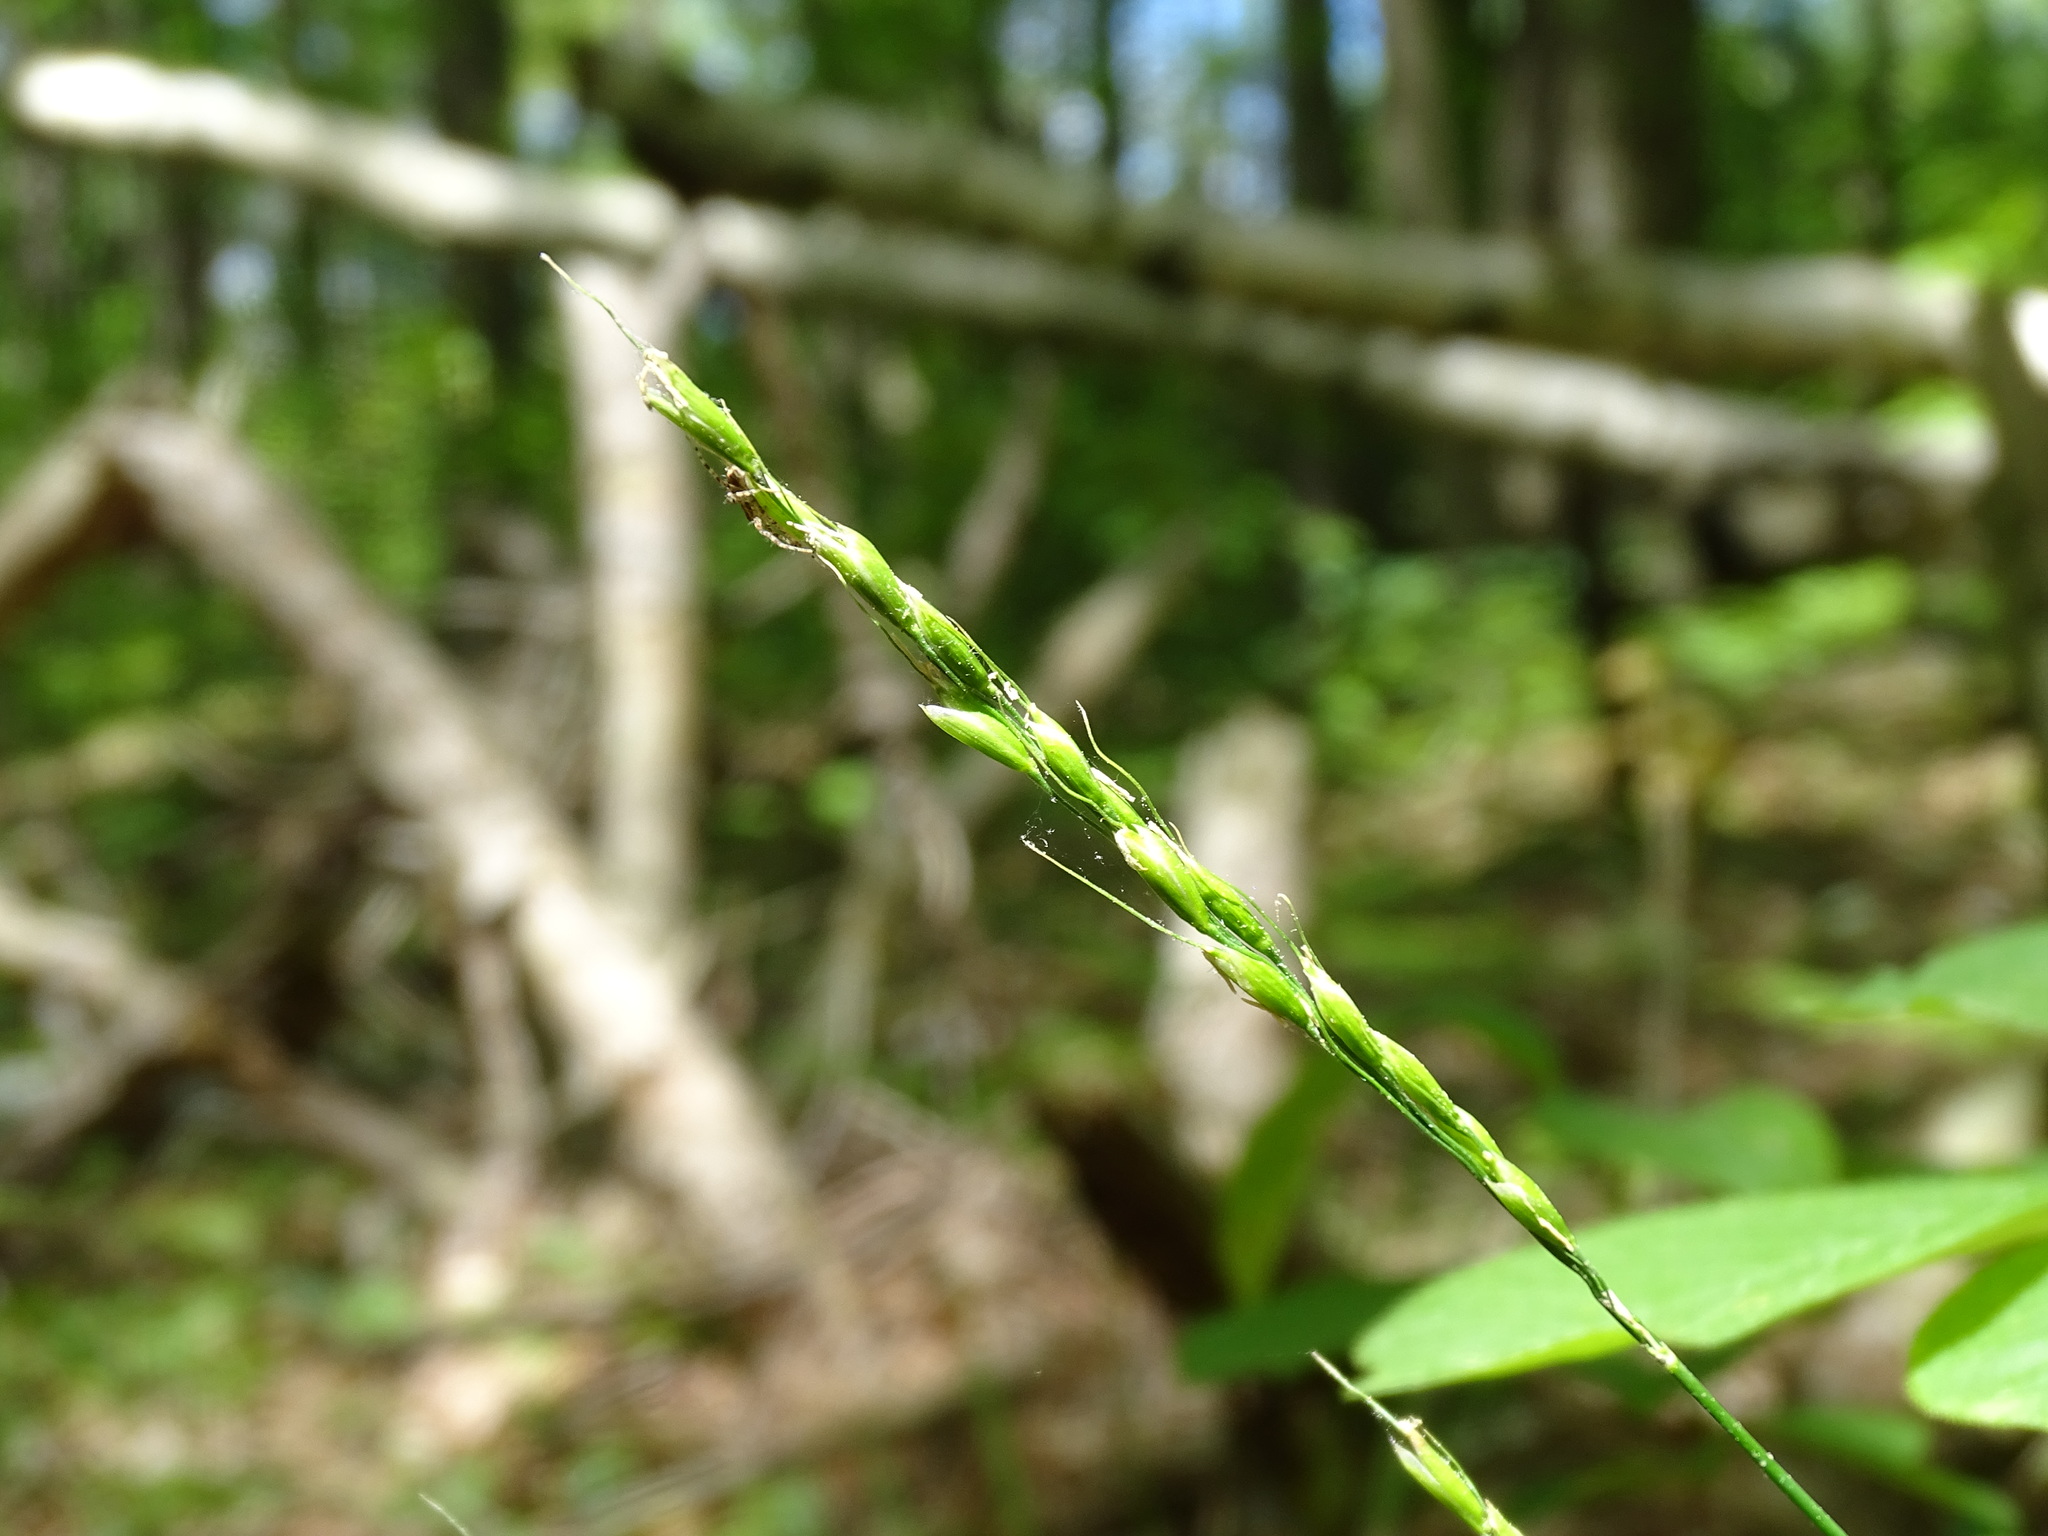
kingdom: Plantae
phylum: Tracheophyta
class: Liliopsida
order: Poales
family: Poaceae
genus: Oryzopsis
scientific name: Oryzopsis asperifolia
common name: Rough-leaved mountain rice
